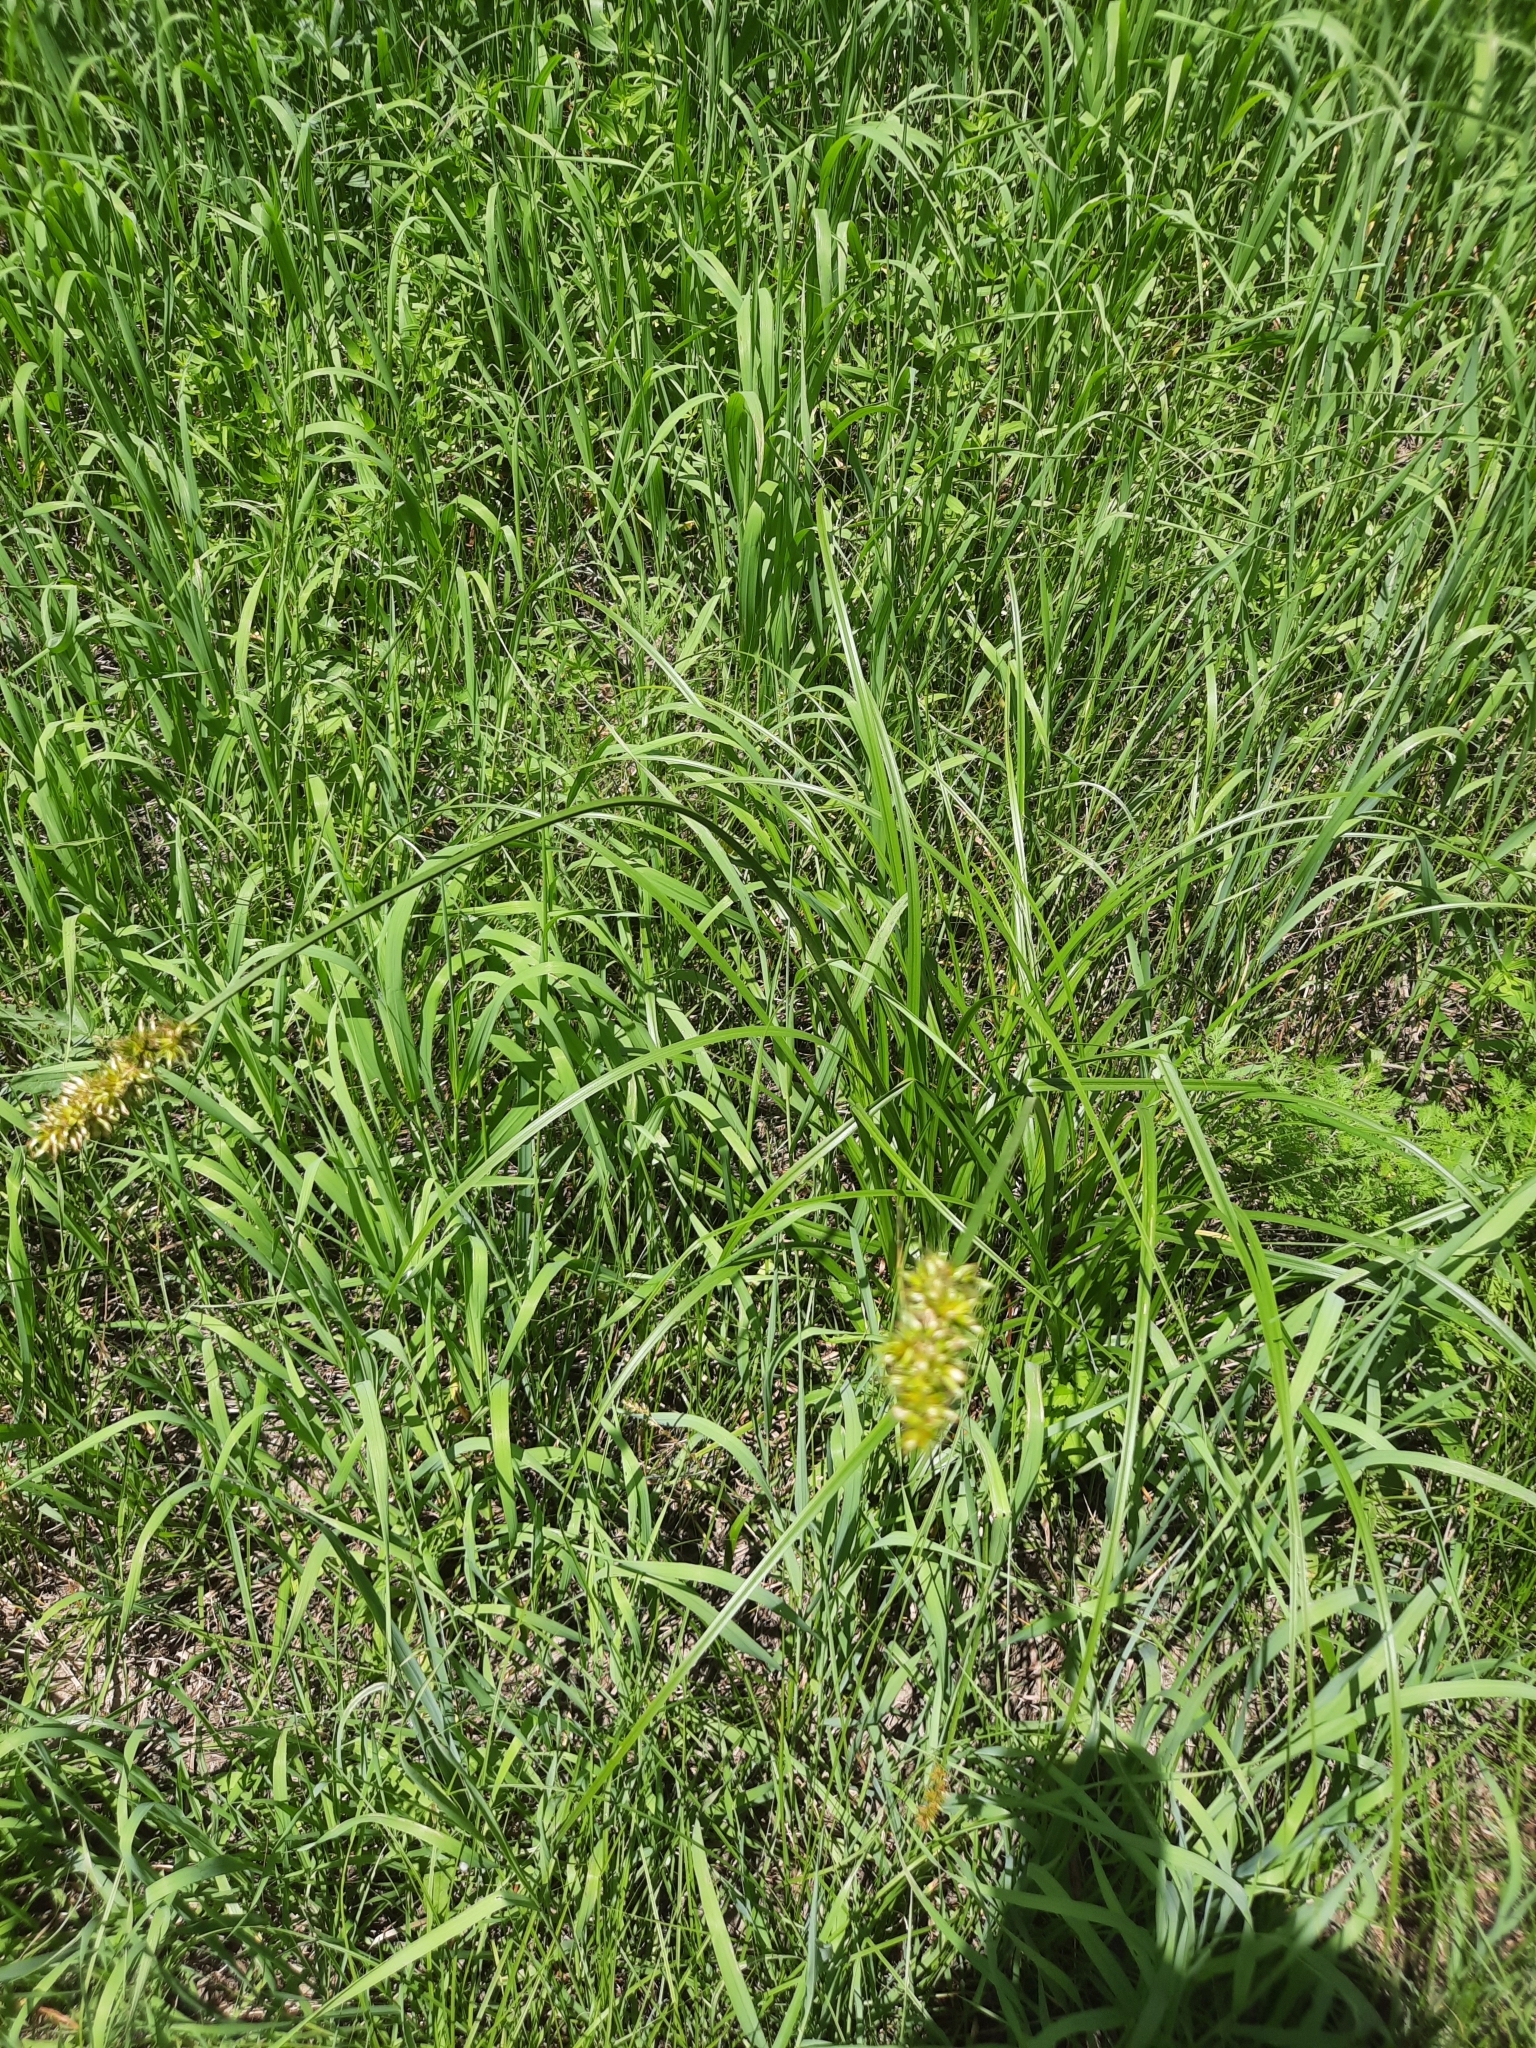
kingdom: Plantae
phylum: Tracheophyta
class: Liliopsida
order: Poales
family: Cyperaceae
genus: Carex
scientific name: Carex otrubae
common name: False fox-sedge
